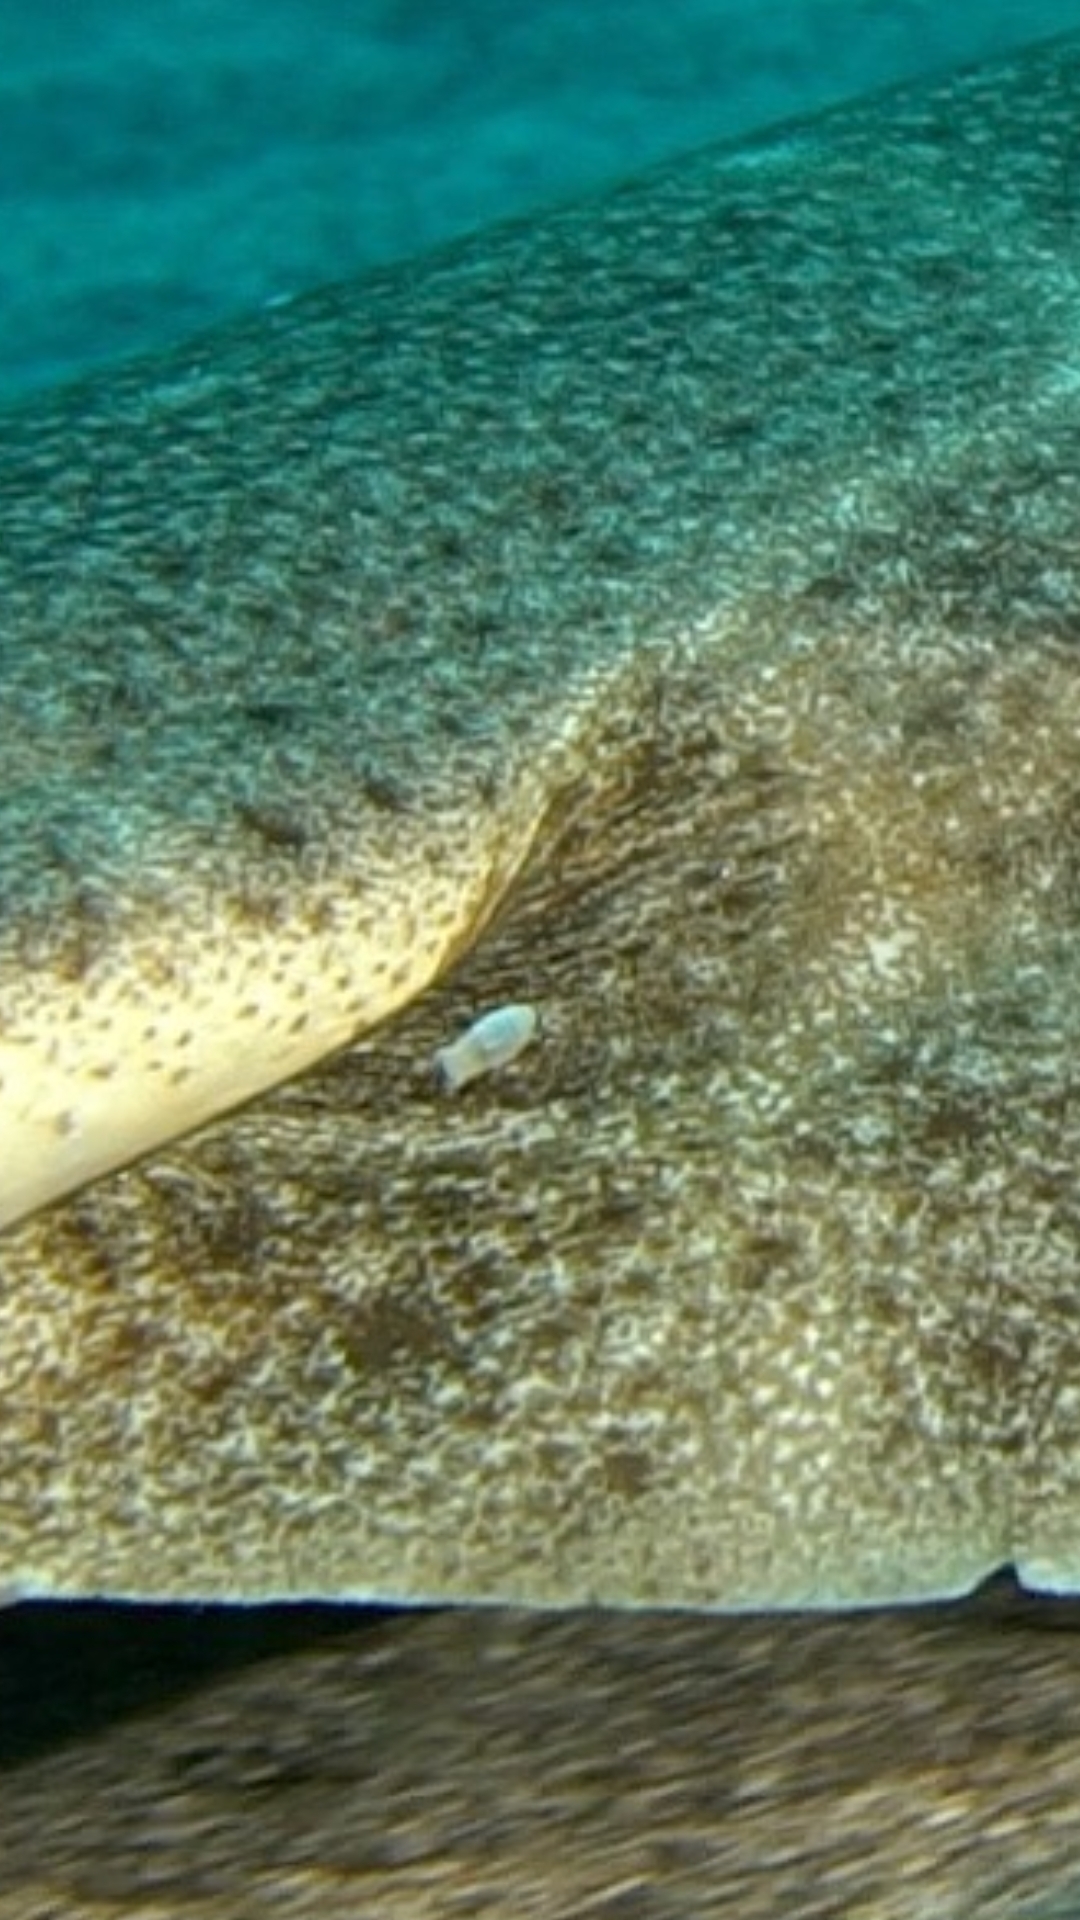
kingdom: Animalia
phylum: Arthropoda
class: Malacostraca
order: Isopoda
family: Aegidae
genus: Aegapheles
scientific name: Aegapheles deshaysiana
